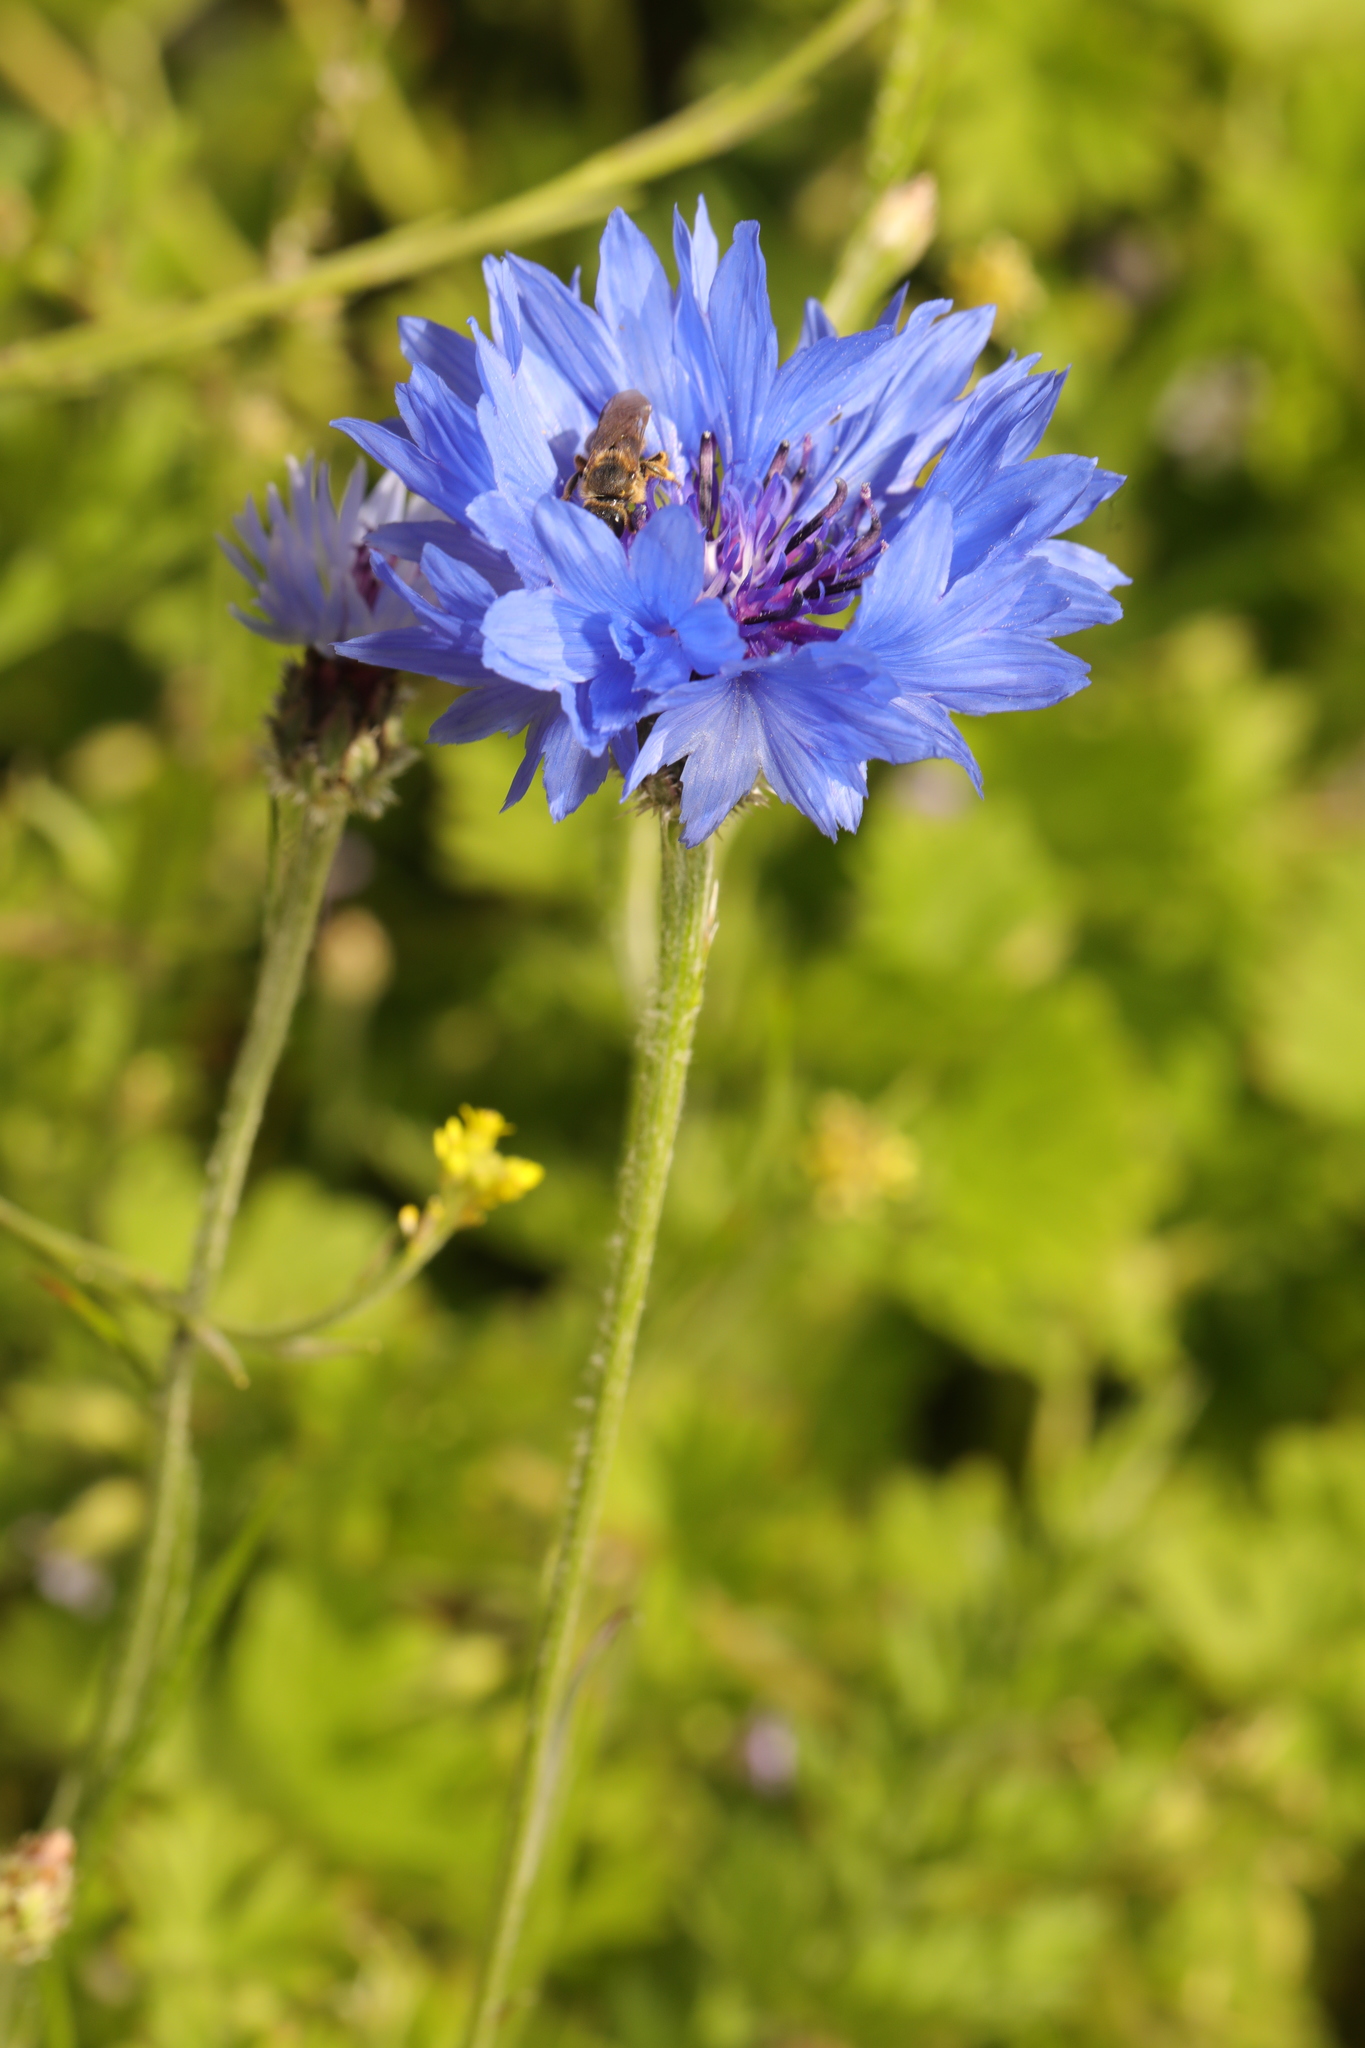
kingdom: Plantae
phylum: Tracheophyta
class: Magnoliopsida
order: Asterales
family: Asteraceae
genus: Centaurea
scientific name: Centaurea cyanus
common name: Cornflower
